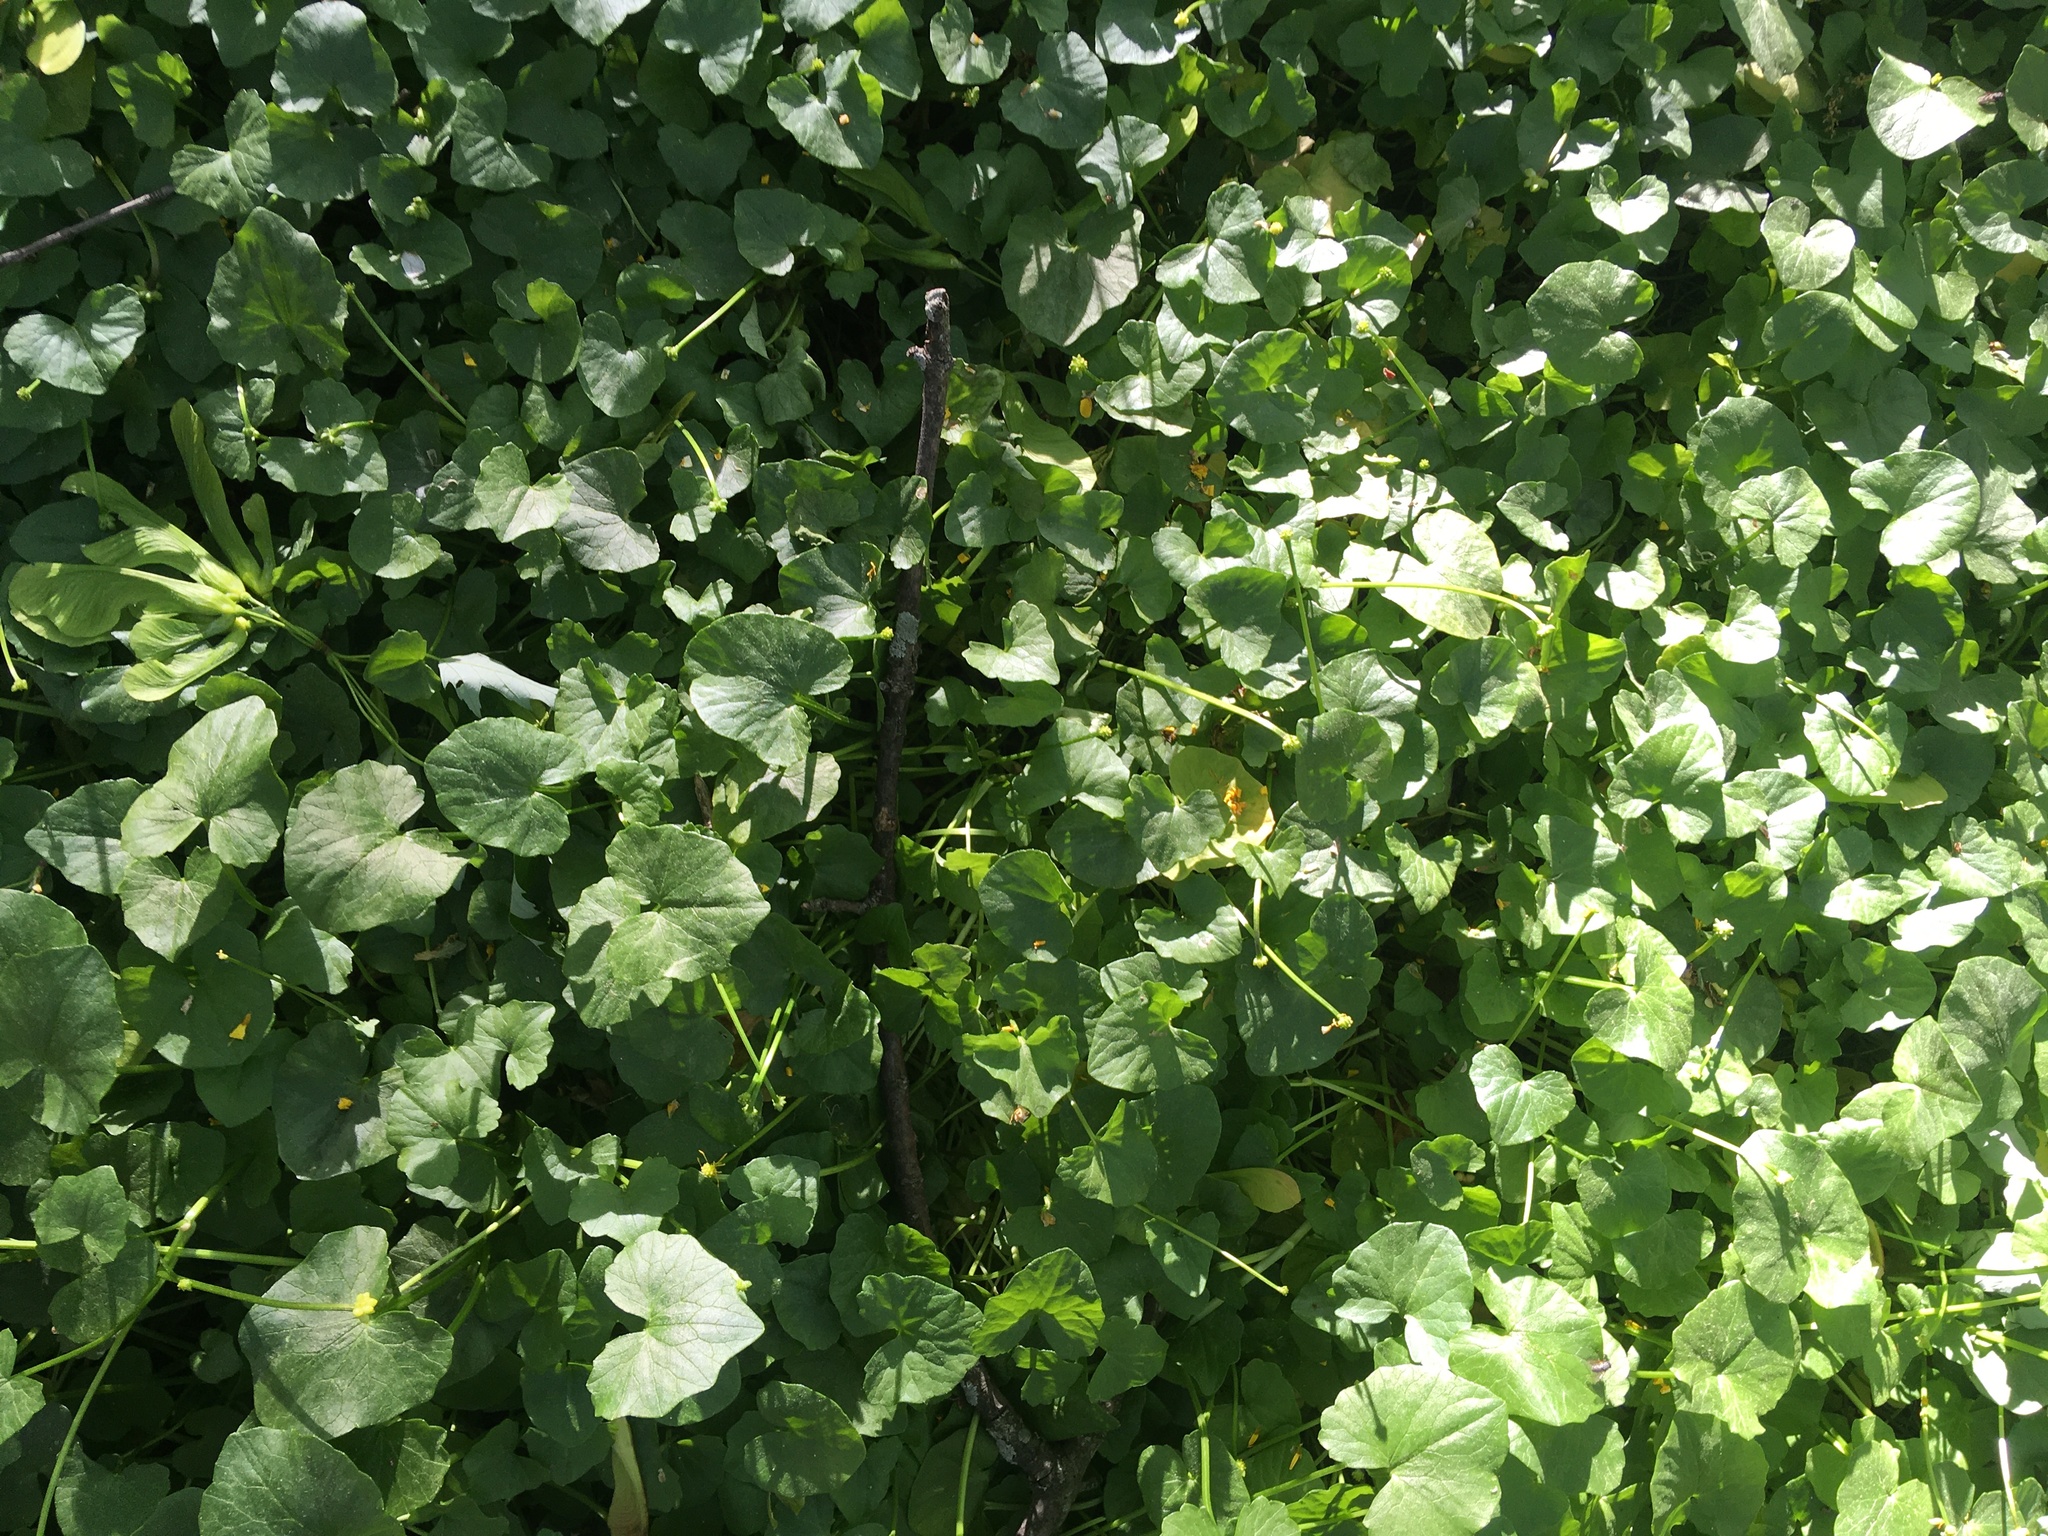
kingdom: Plantae
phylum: Tracheophyta
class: Magnoliopsida
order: Ranunculales
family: Ranunculaceae
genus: Ficaria
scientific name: Ficaria verna
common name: Lesser celandine
